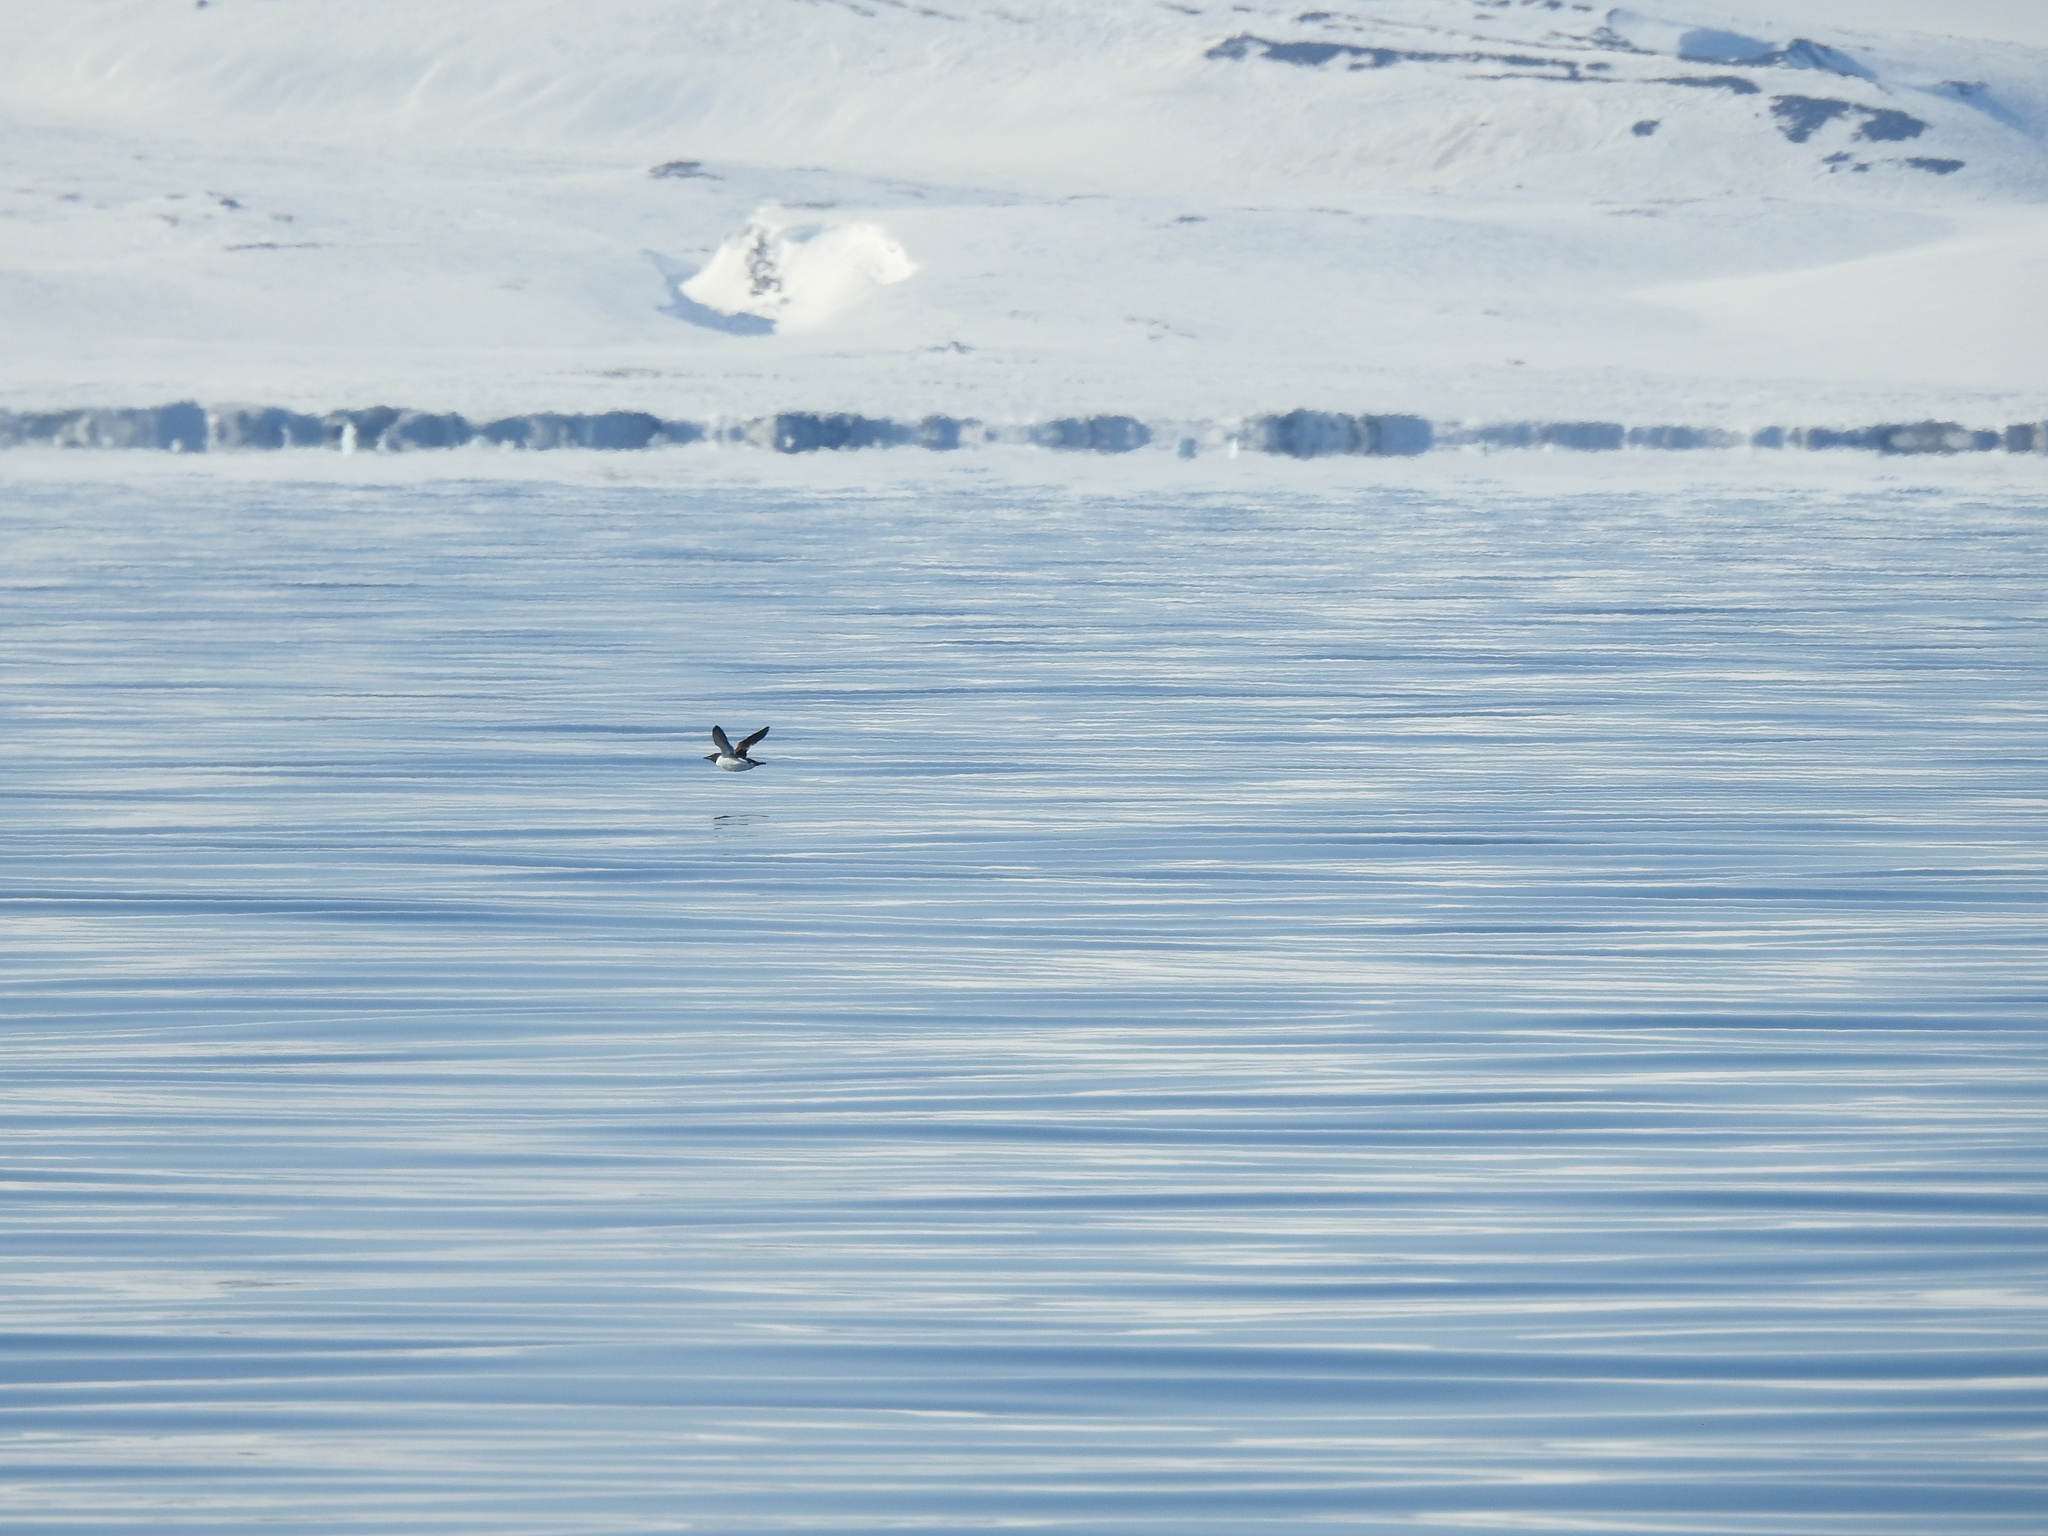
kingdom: Animalia
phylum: Chordata
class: Aves
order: Charadriiformes
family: Alcidae
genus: Uria
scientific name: Uria lomvia
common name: Thick-billed murre
